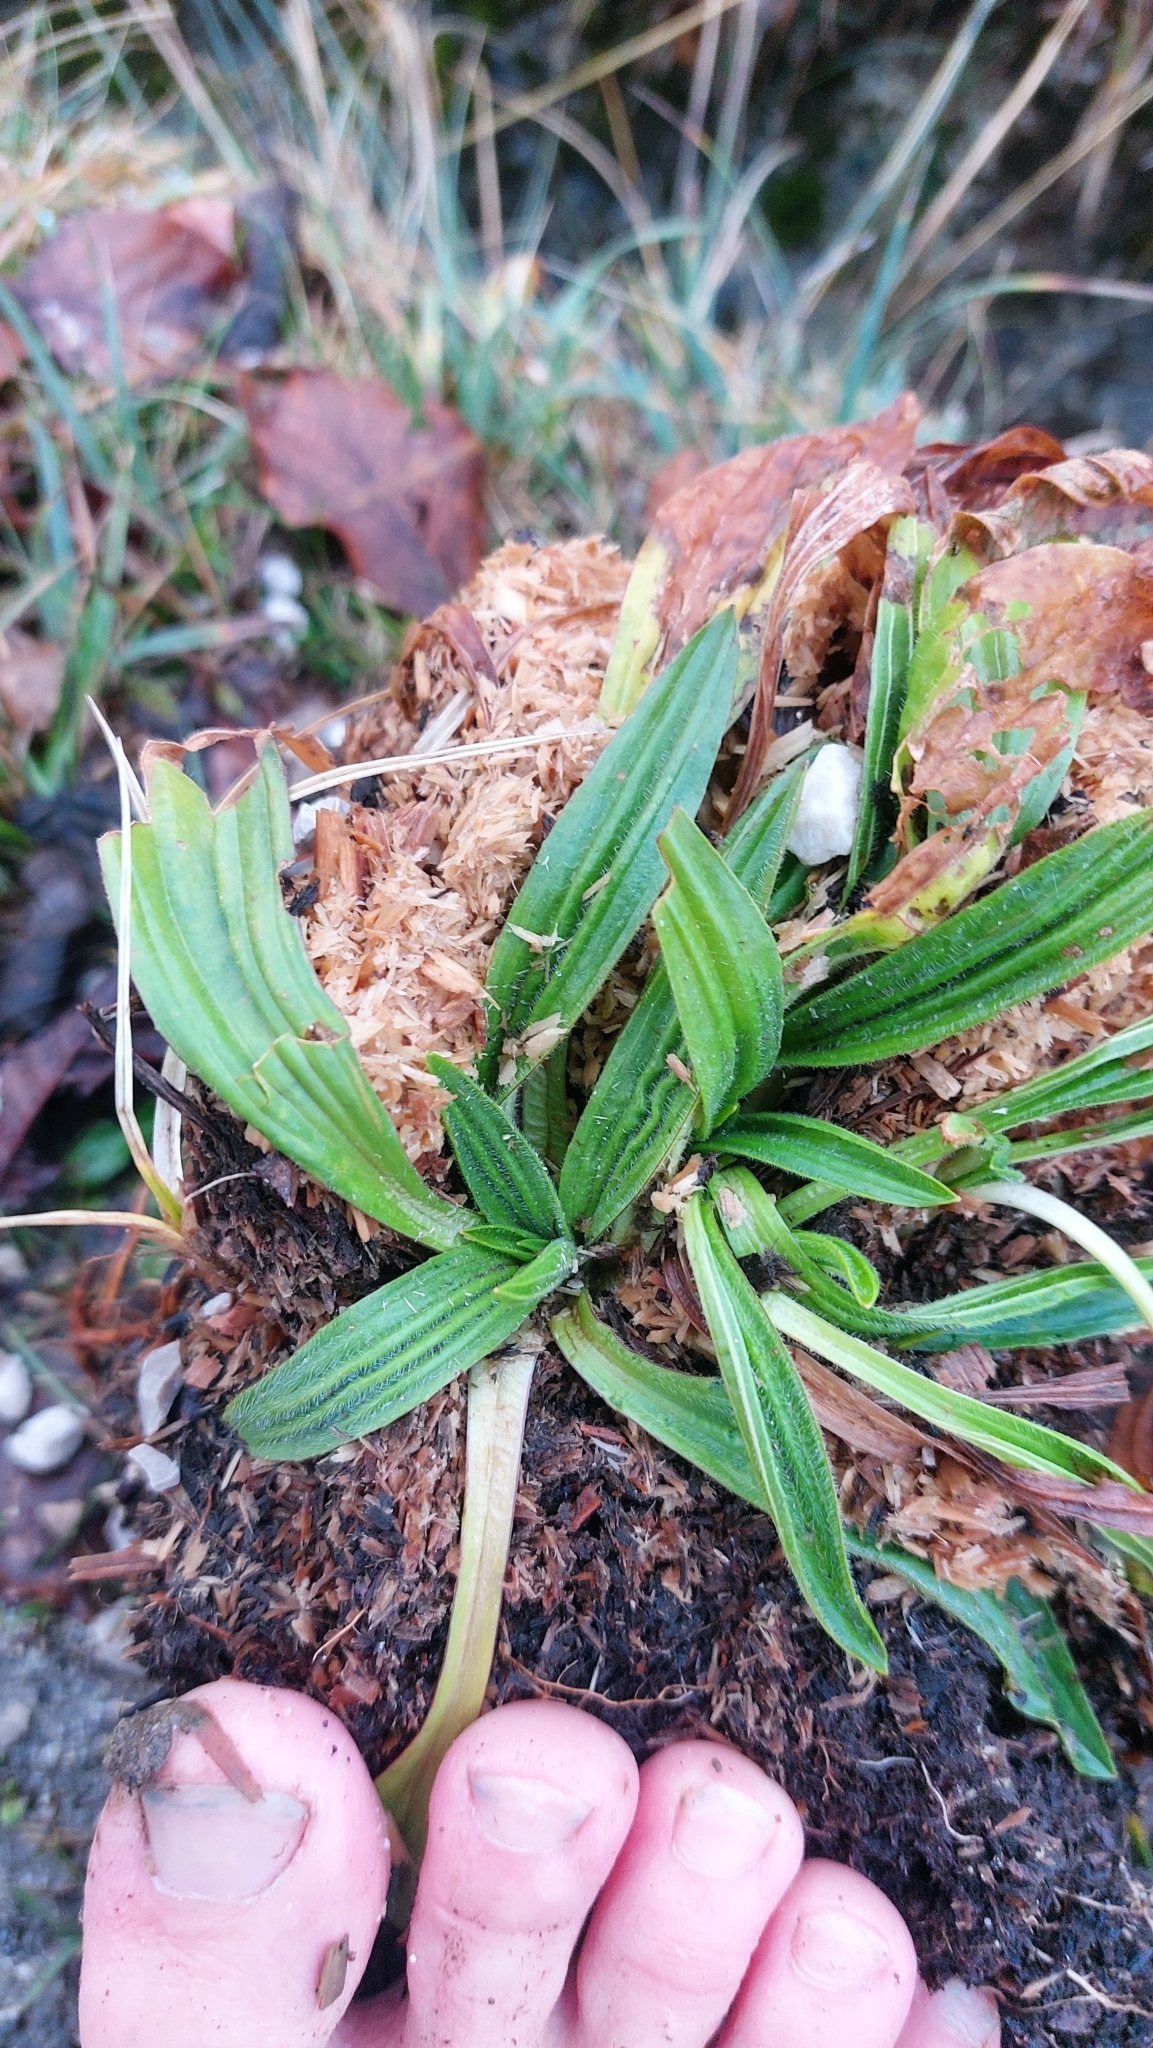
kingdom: Plantae
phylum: Tracheophyta
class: Magnoliopsida
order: Lamiales
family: Plantaginaceae
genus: Plantago
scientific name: Plantago lanceolata
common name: Ribwort plantain
